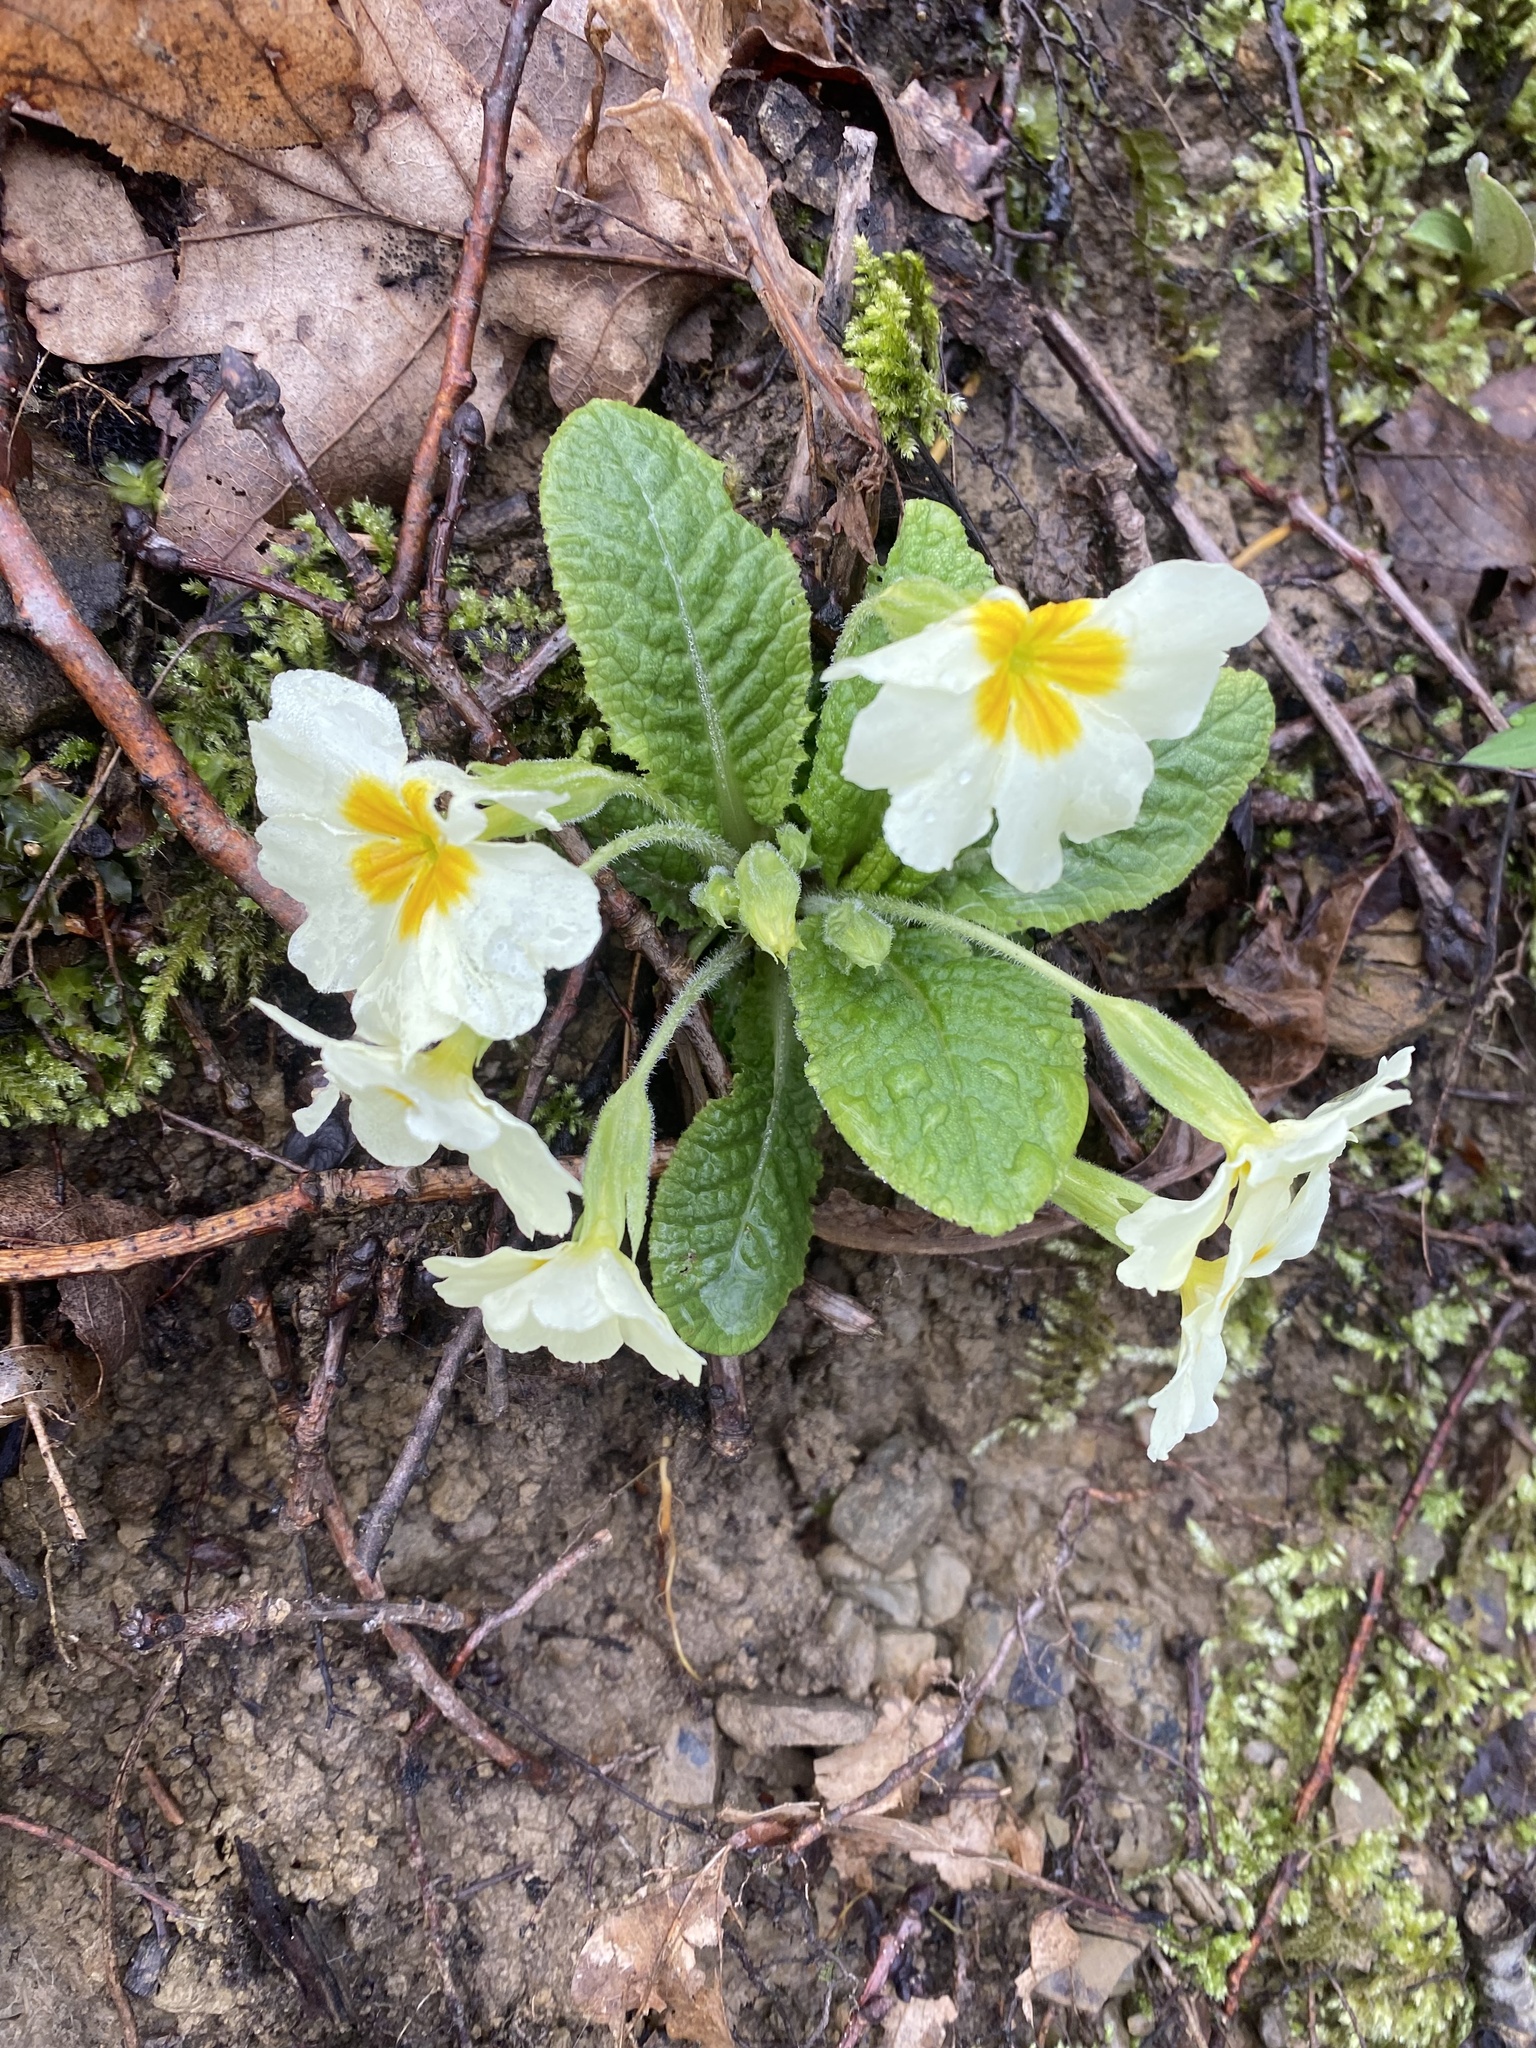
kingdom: Plantae
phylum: Tracheophyta
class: Magnoliopsida
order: Ericales
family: Primulaceae
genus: Primula
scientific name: Primula vulgaris
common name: Primrose
